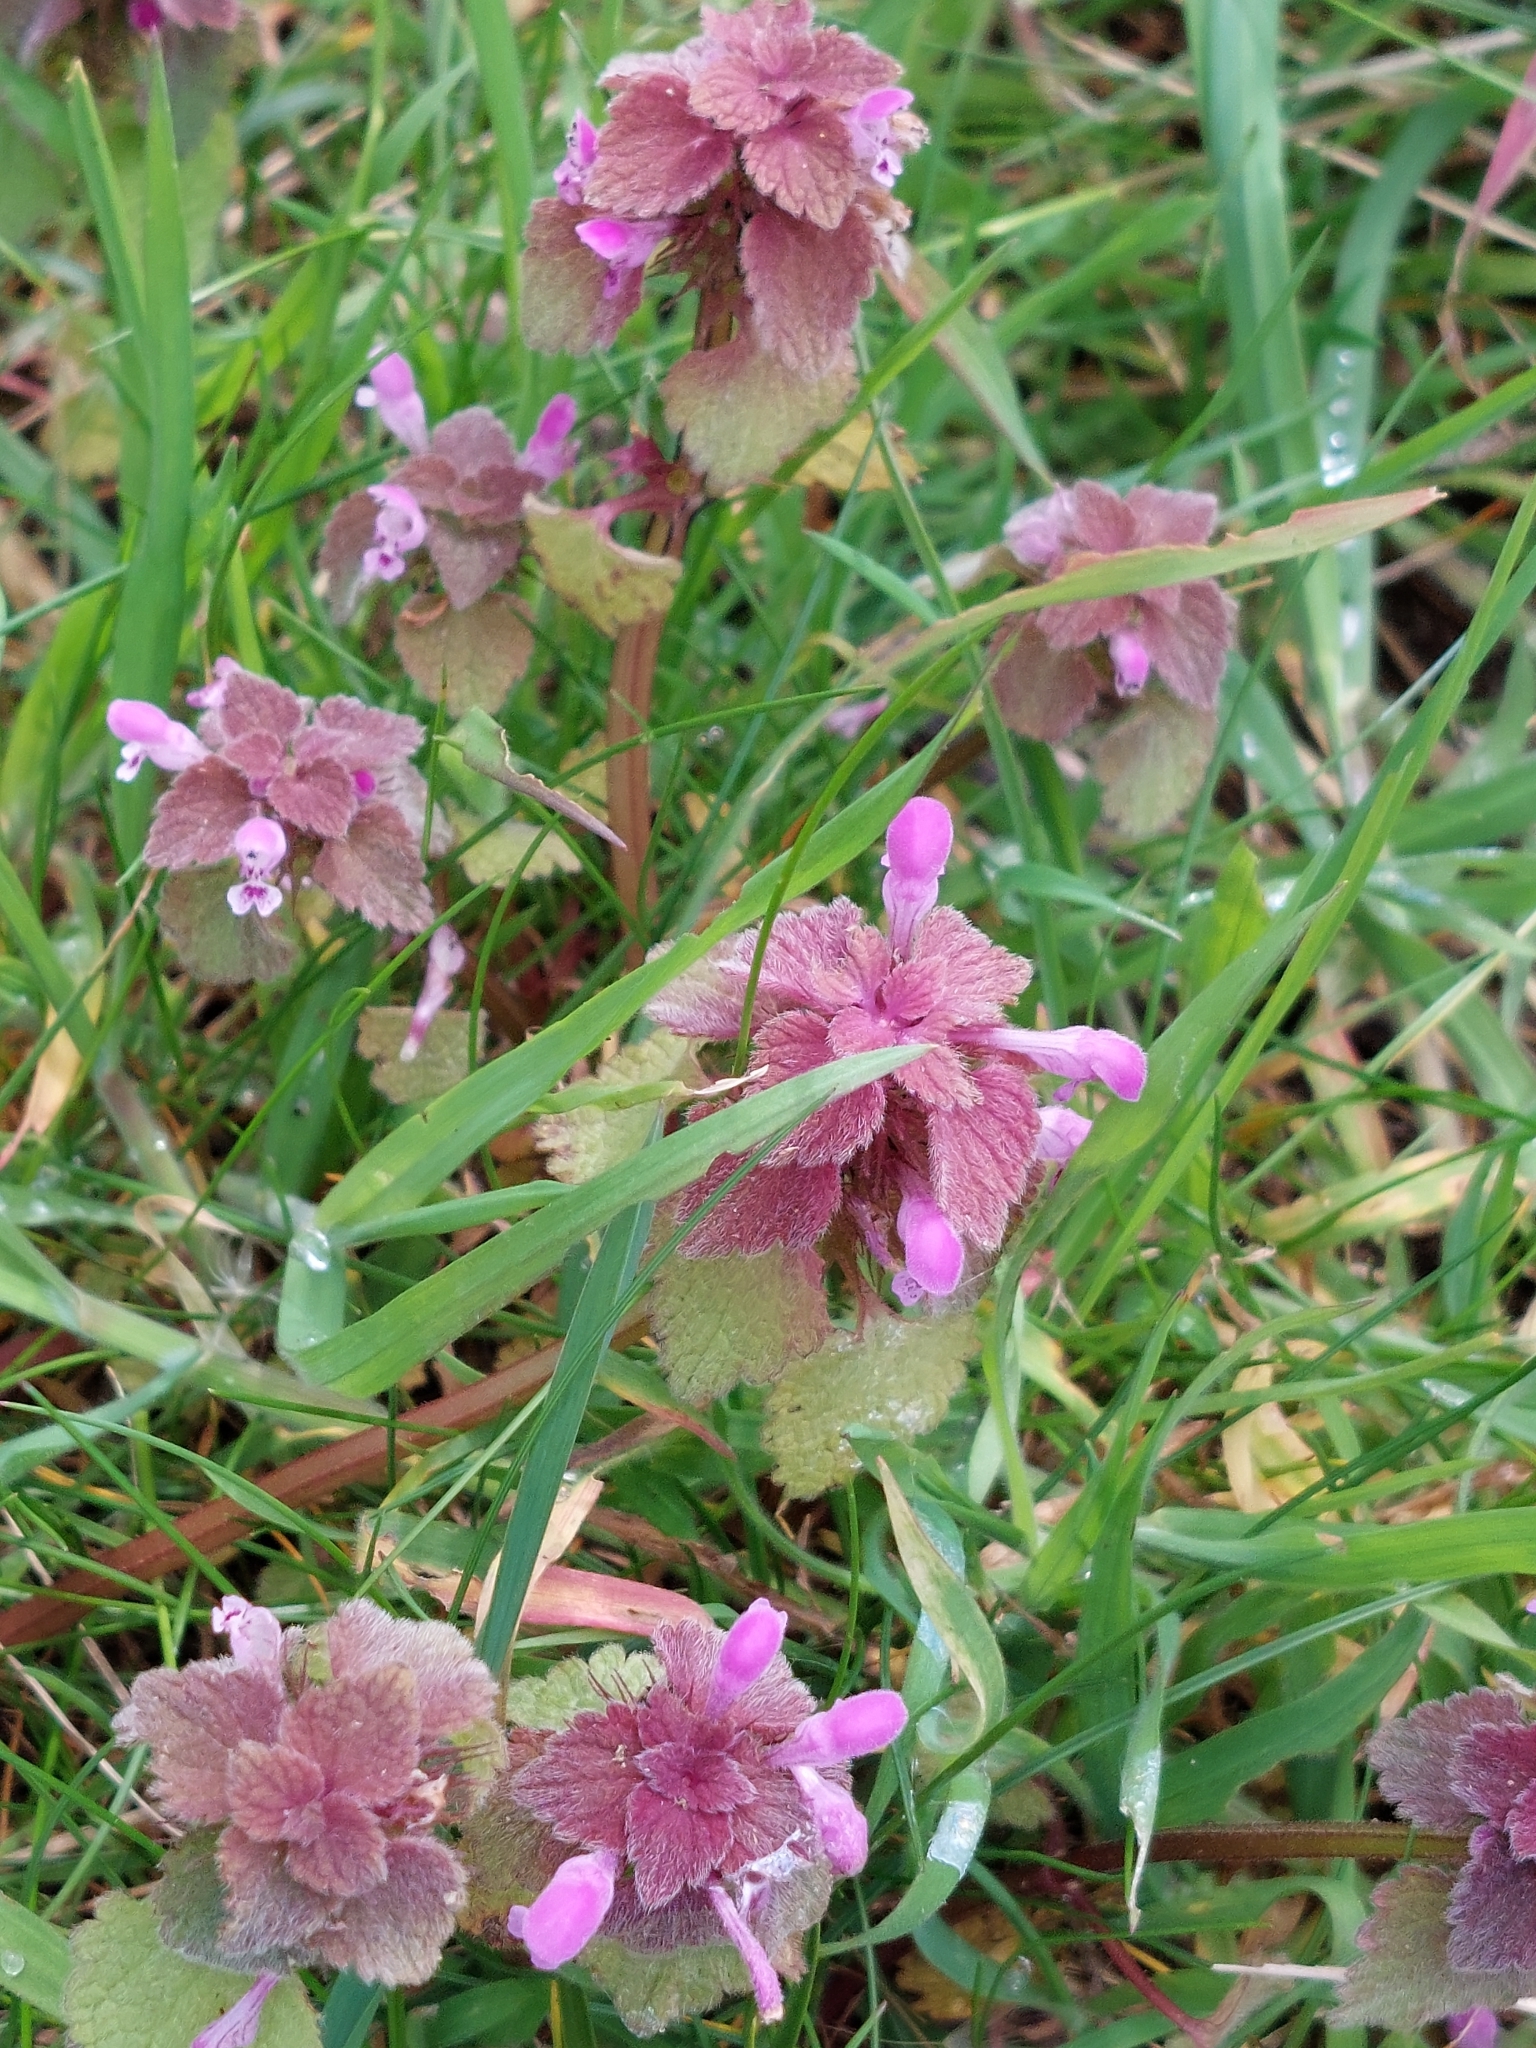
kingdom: Plantae
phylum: Tracheophyta
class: Magnoliopsida
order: Lamiales
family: Lamiaceae
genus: Lamium
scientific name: Lamium purpureum
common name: Red dead-nettle
